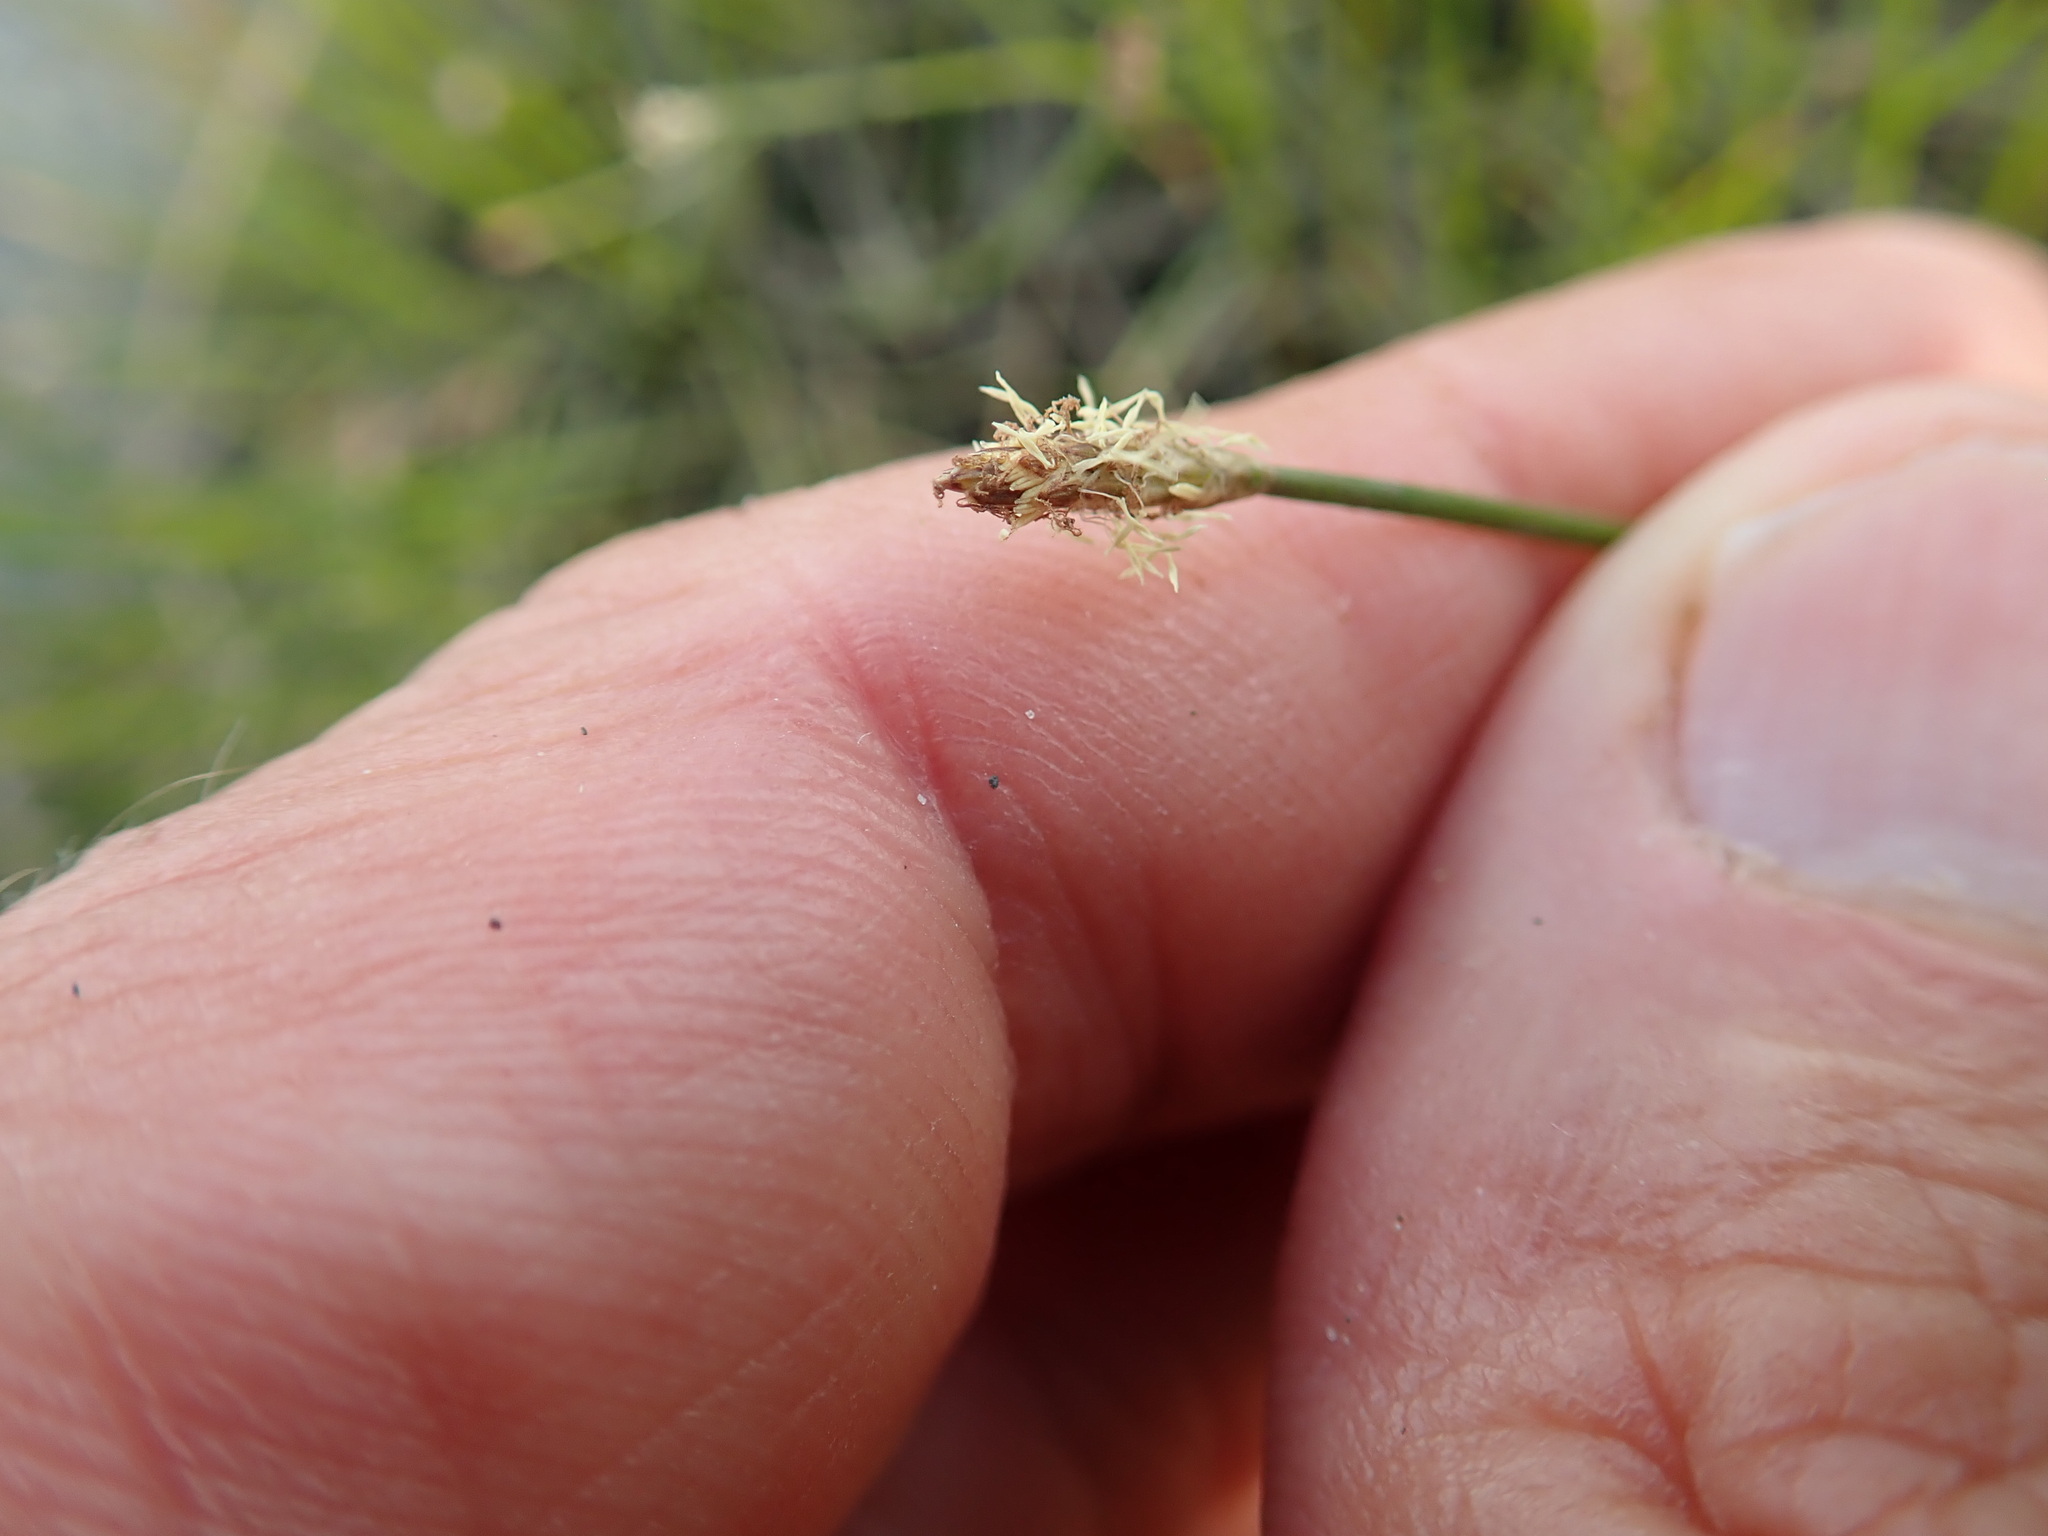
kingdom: Plantae
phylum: Tracheophyta
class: Liliopsida
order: Poales
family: Cyperaceae
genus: Eleocharis
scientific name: Eleocharis acuta
